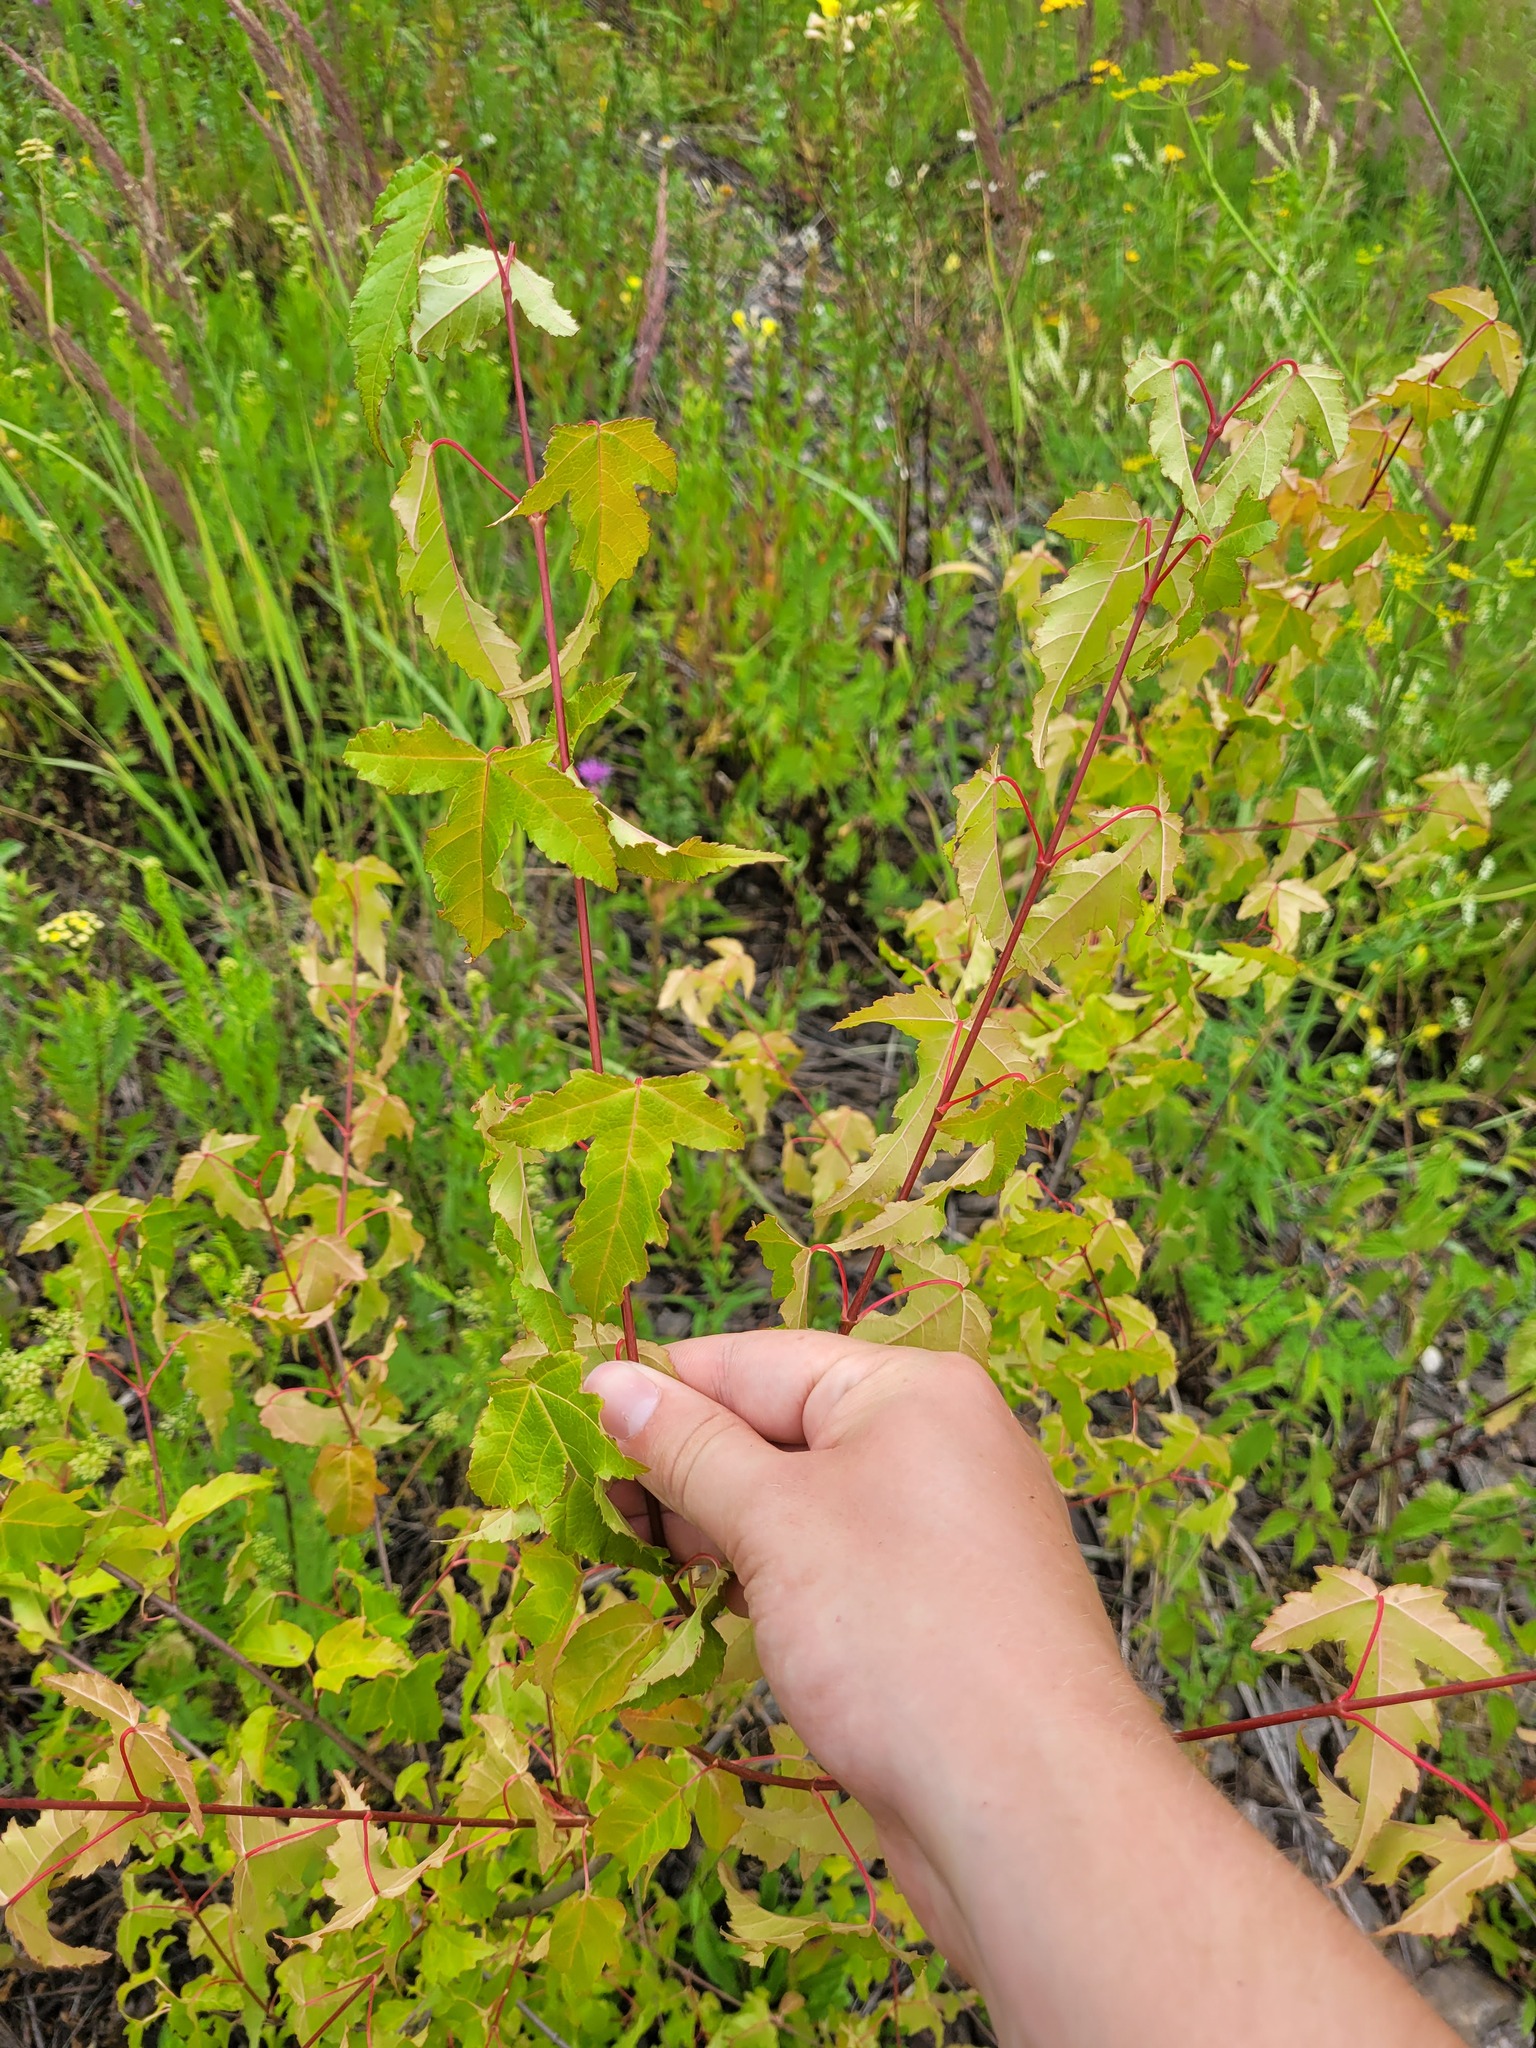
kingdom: Plantae
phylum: Tracheophyta
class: Magnoliopsida
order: Sapindales
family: Sapindaceae
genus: Acer
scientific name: Acer tataricum
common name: Tartar maple
